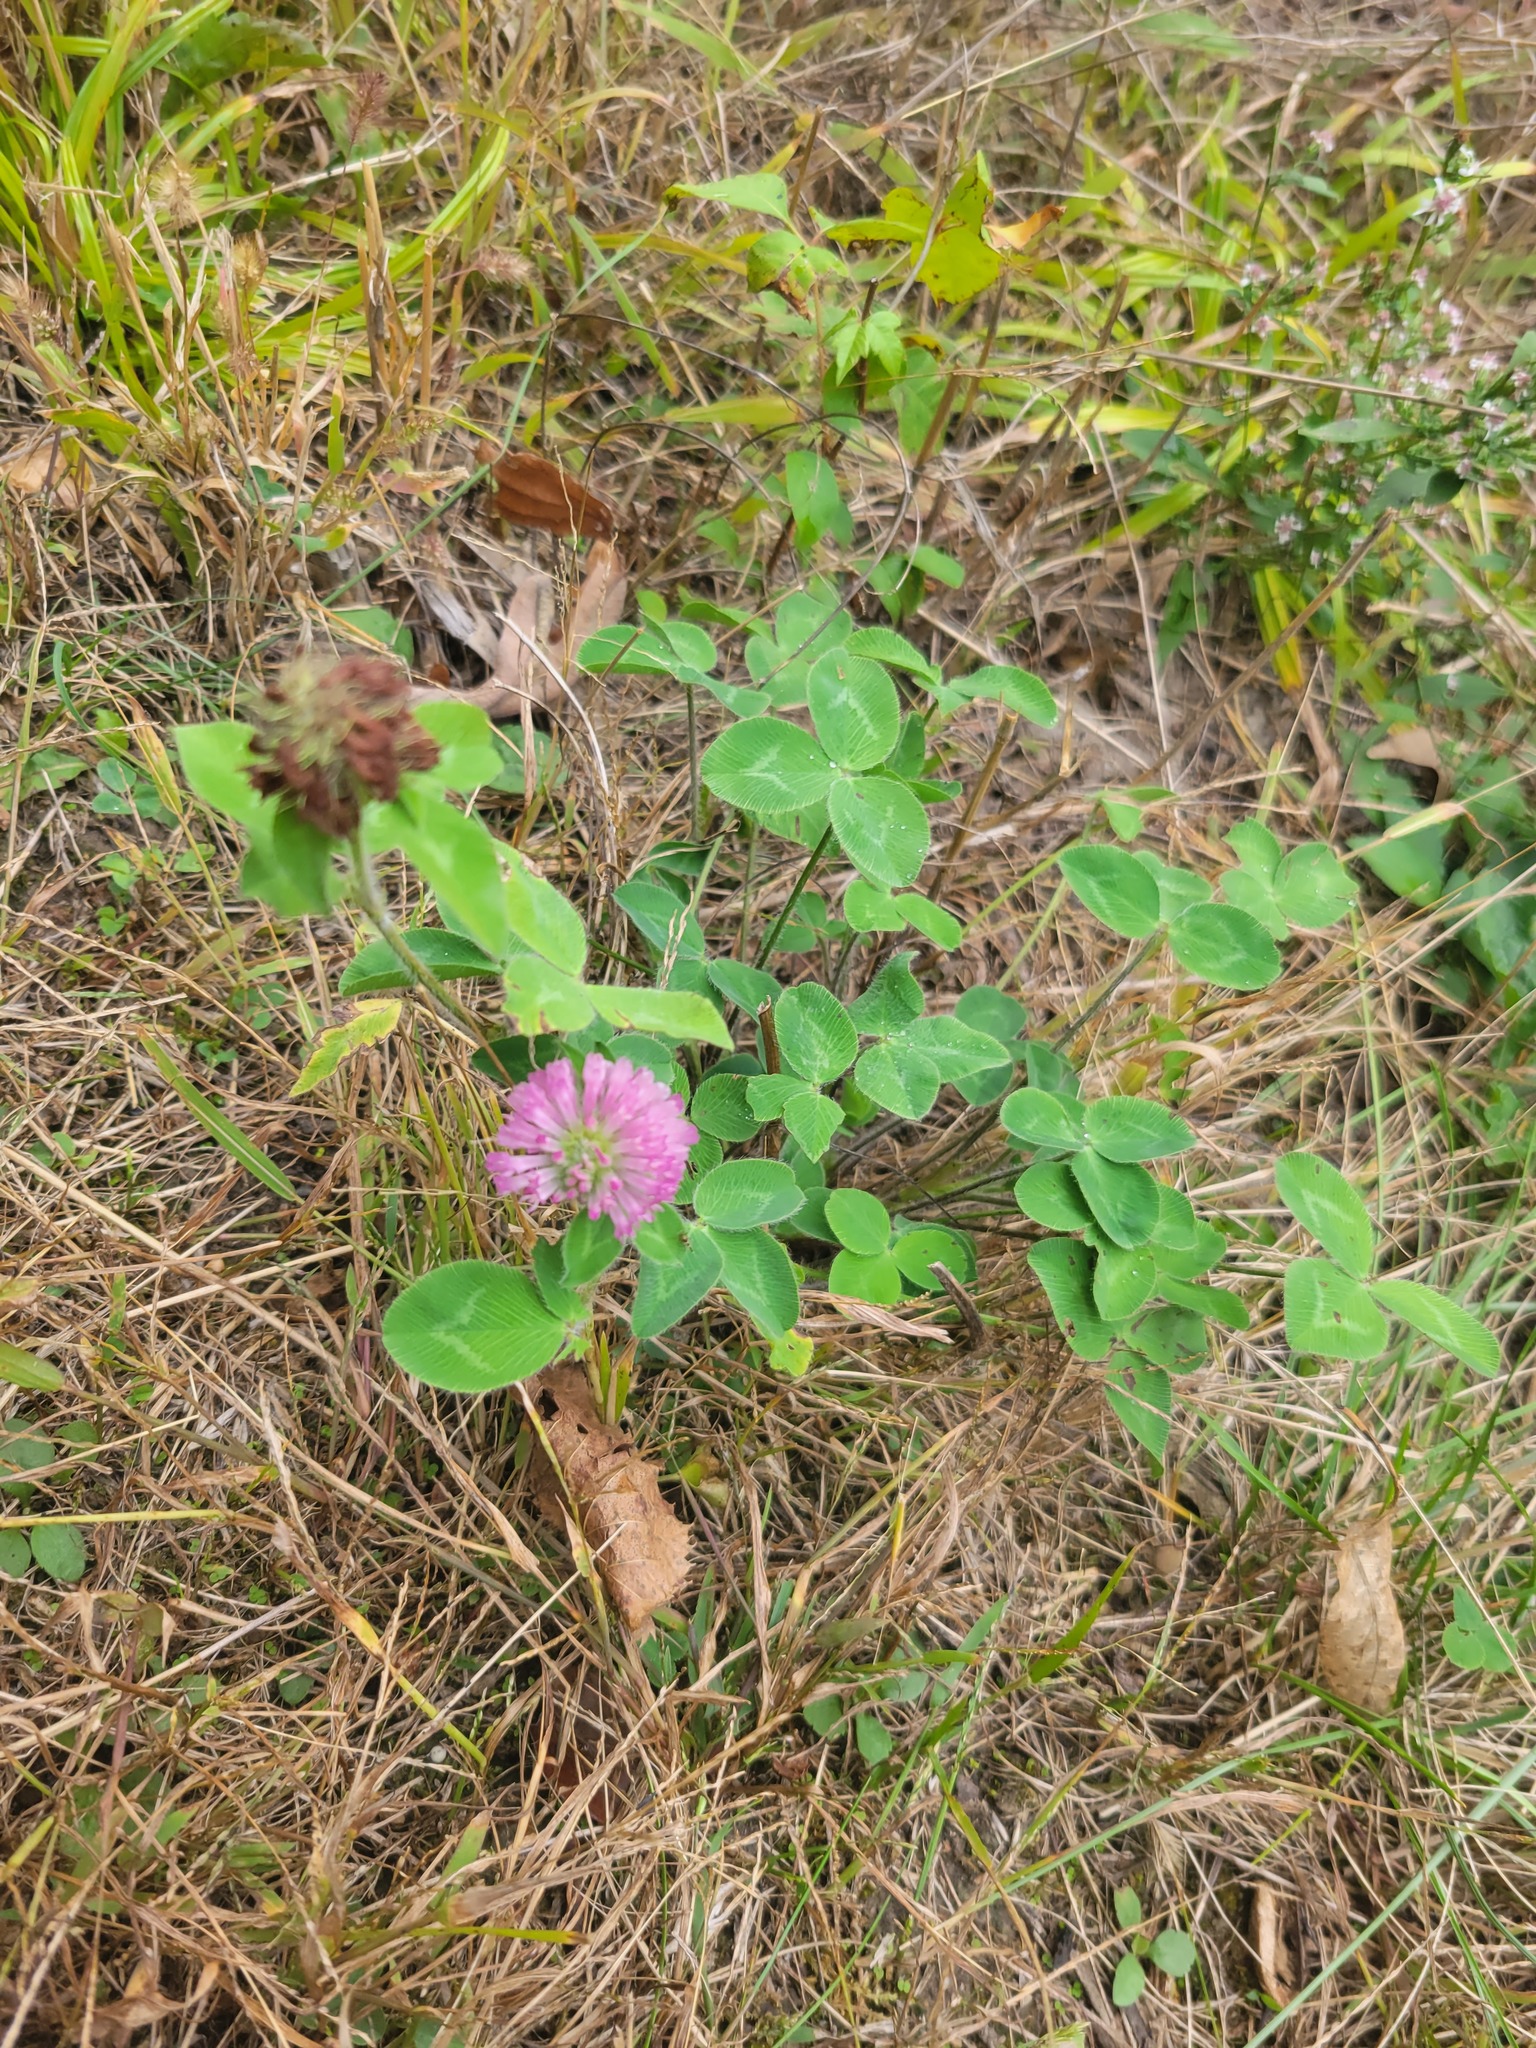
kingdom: Plantae
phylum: Tracheophyta
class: Magnoliopsida
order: Fabales
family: Fabaceae
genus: Trifolium
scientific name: Trifolium pratense
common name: Red clover
